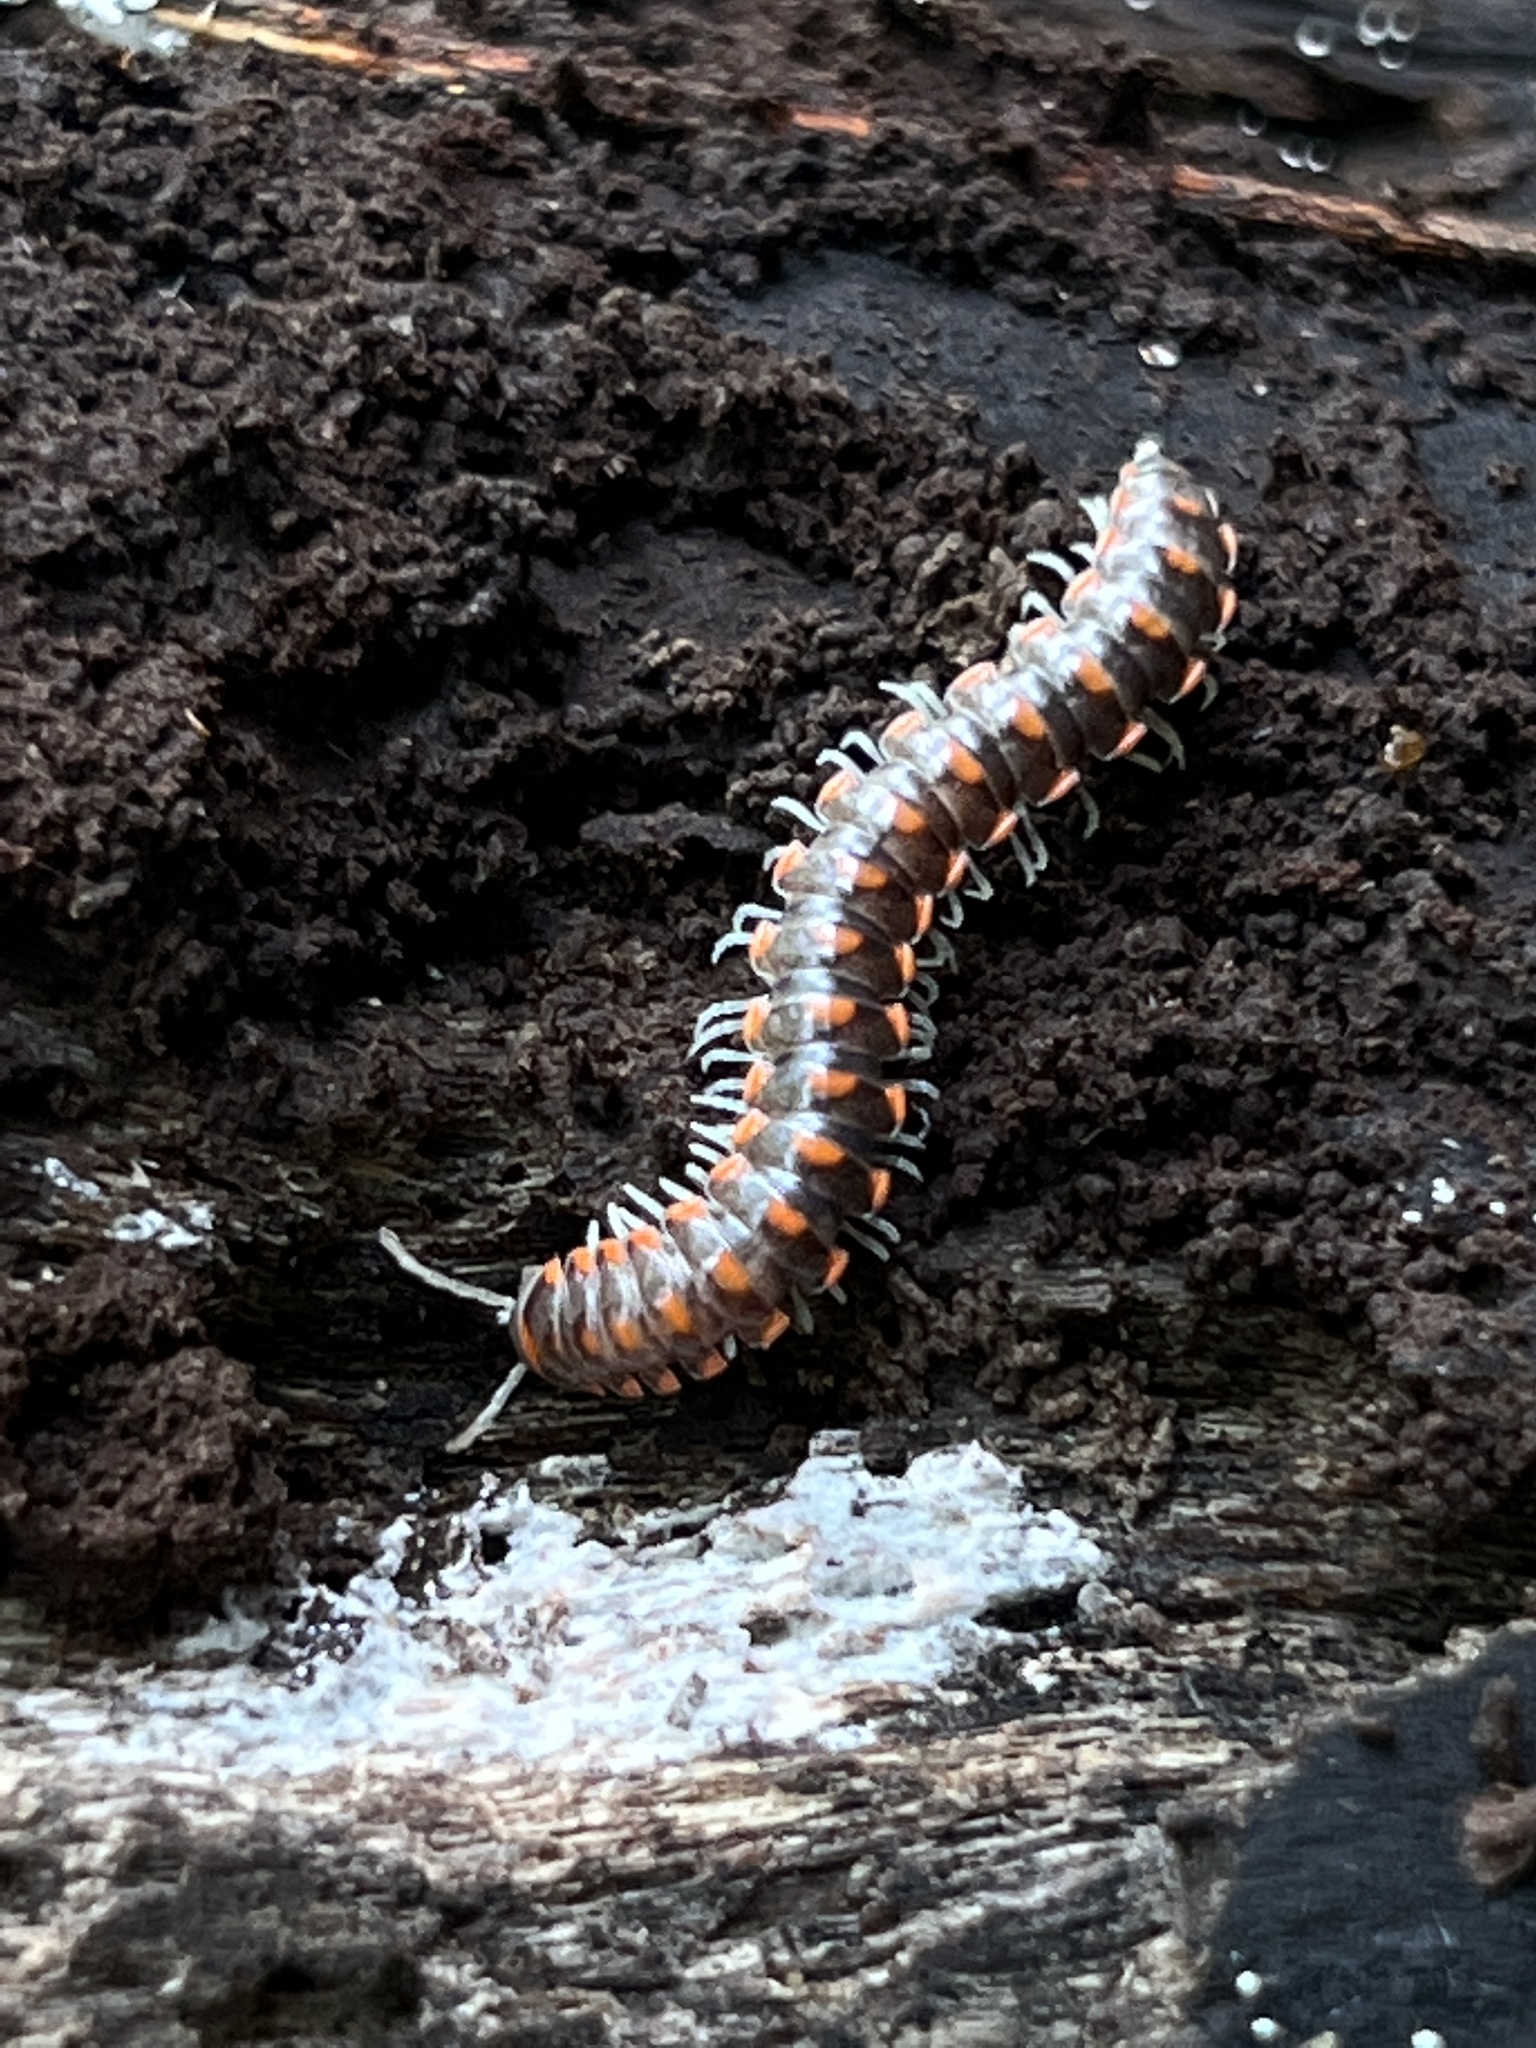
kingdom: Animalia
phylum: Arthropoda
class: Diplopoda
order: Polydesmida
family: Xystodesmidae
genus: Euryurus
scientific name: Euryurus leachii
